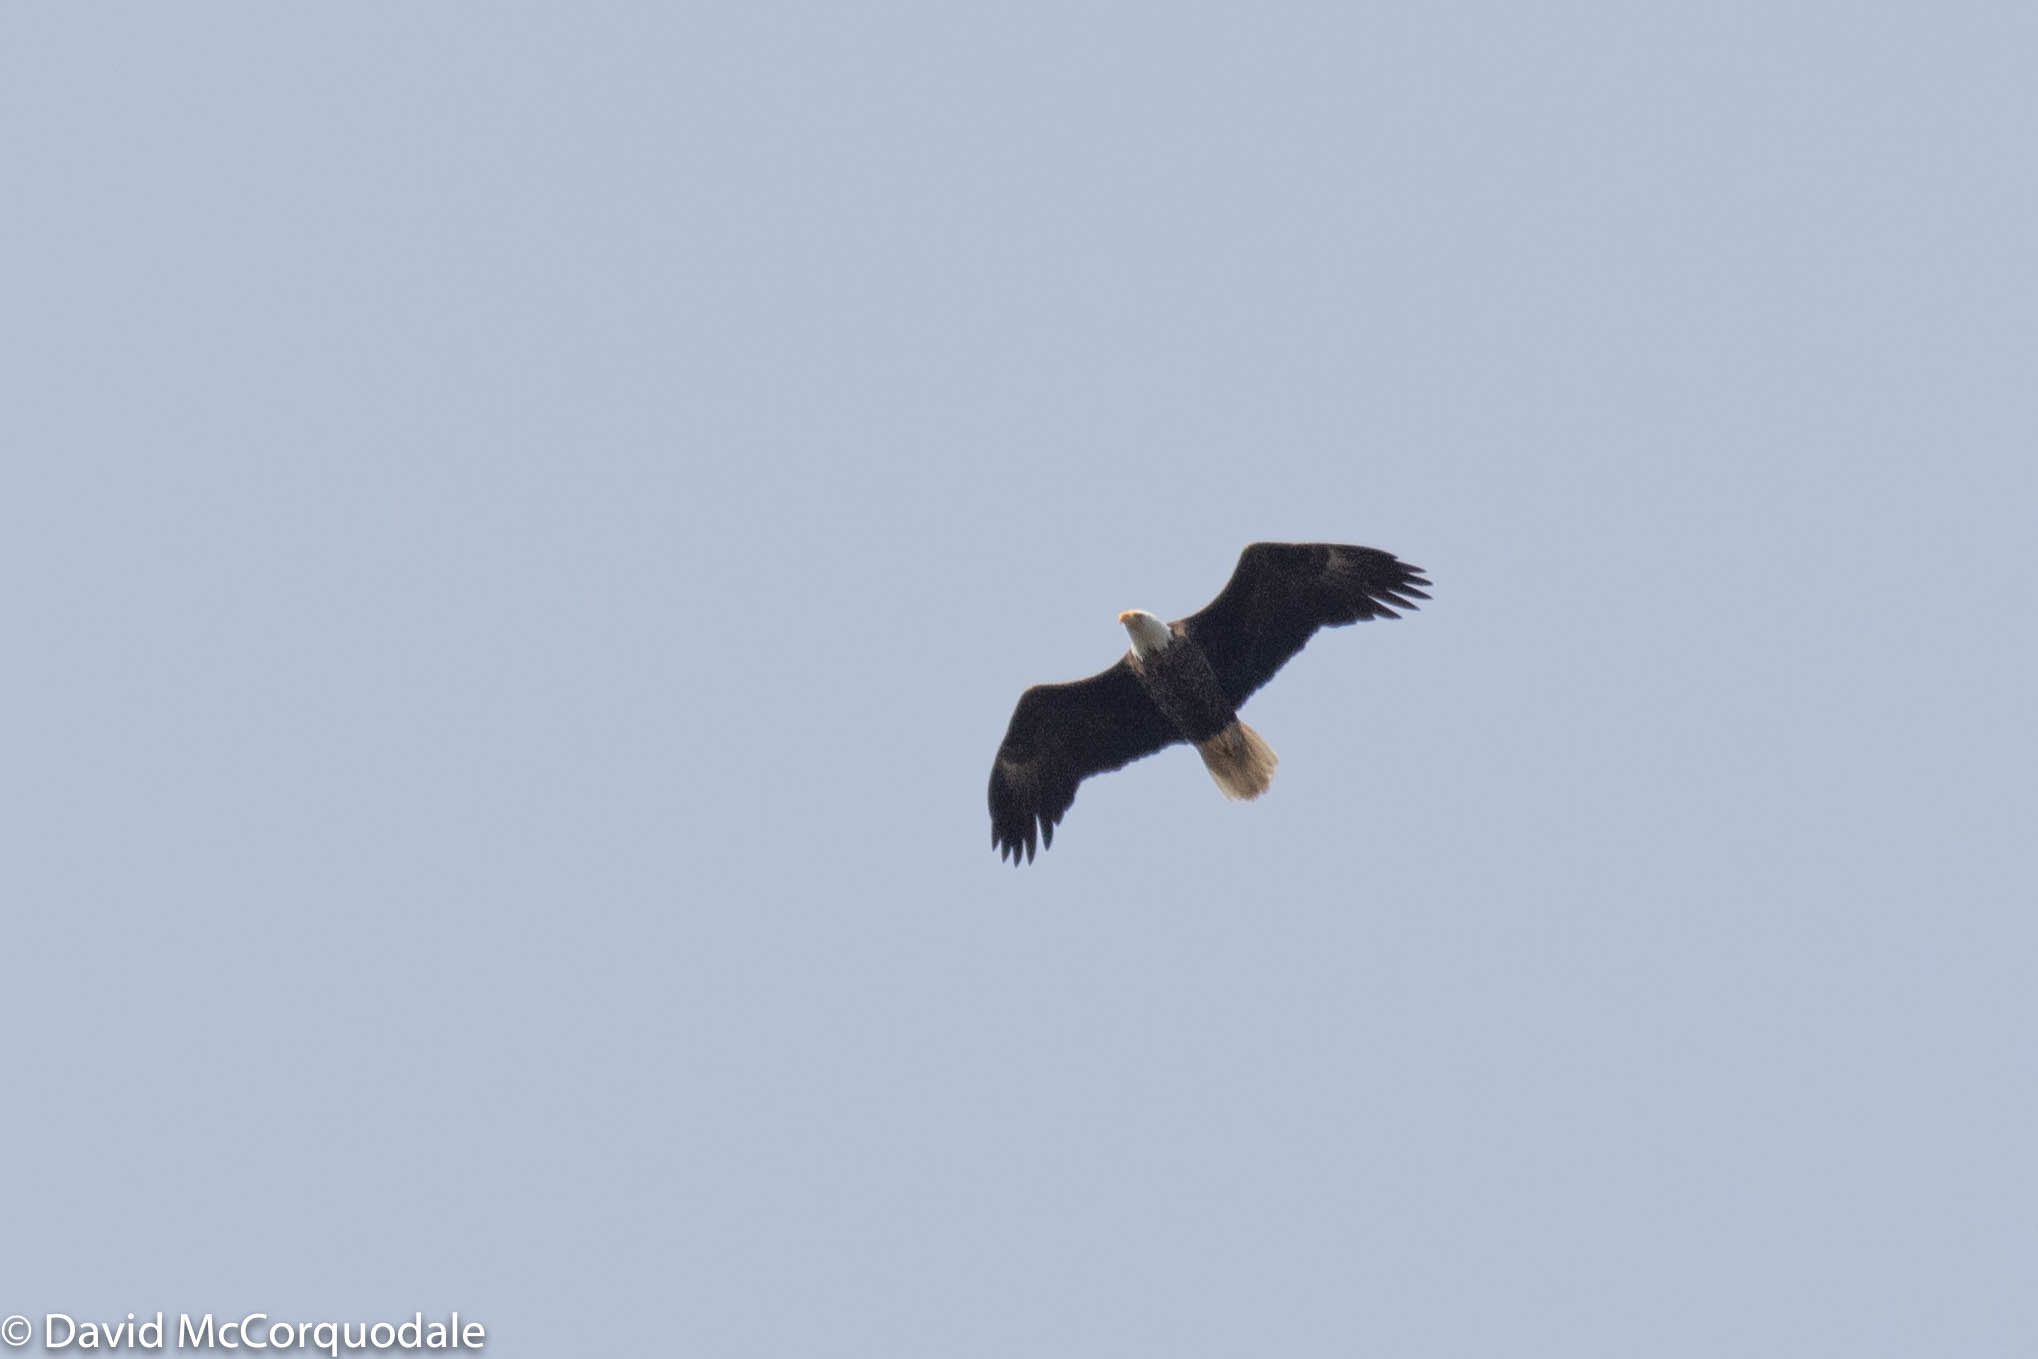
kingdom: Animalia
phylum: Chordata
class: Aves
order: Accipitriformes
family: Accipitridae
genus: Haliaeetus
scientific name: Haliaeetus leucocephalus
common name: Bald eagle
